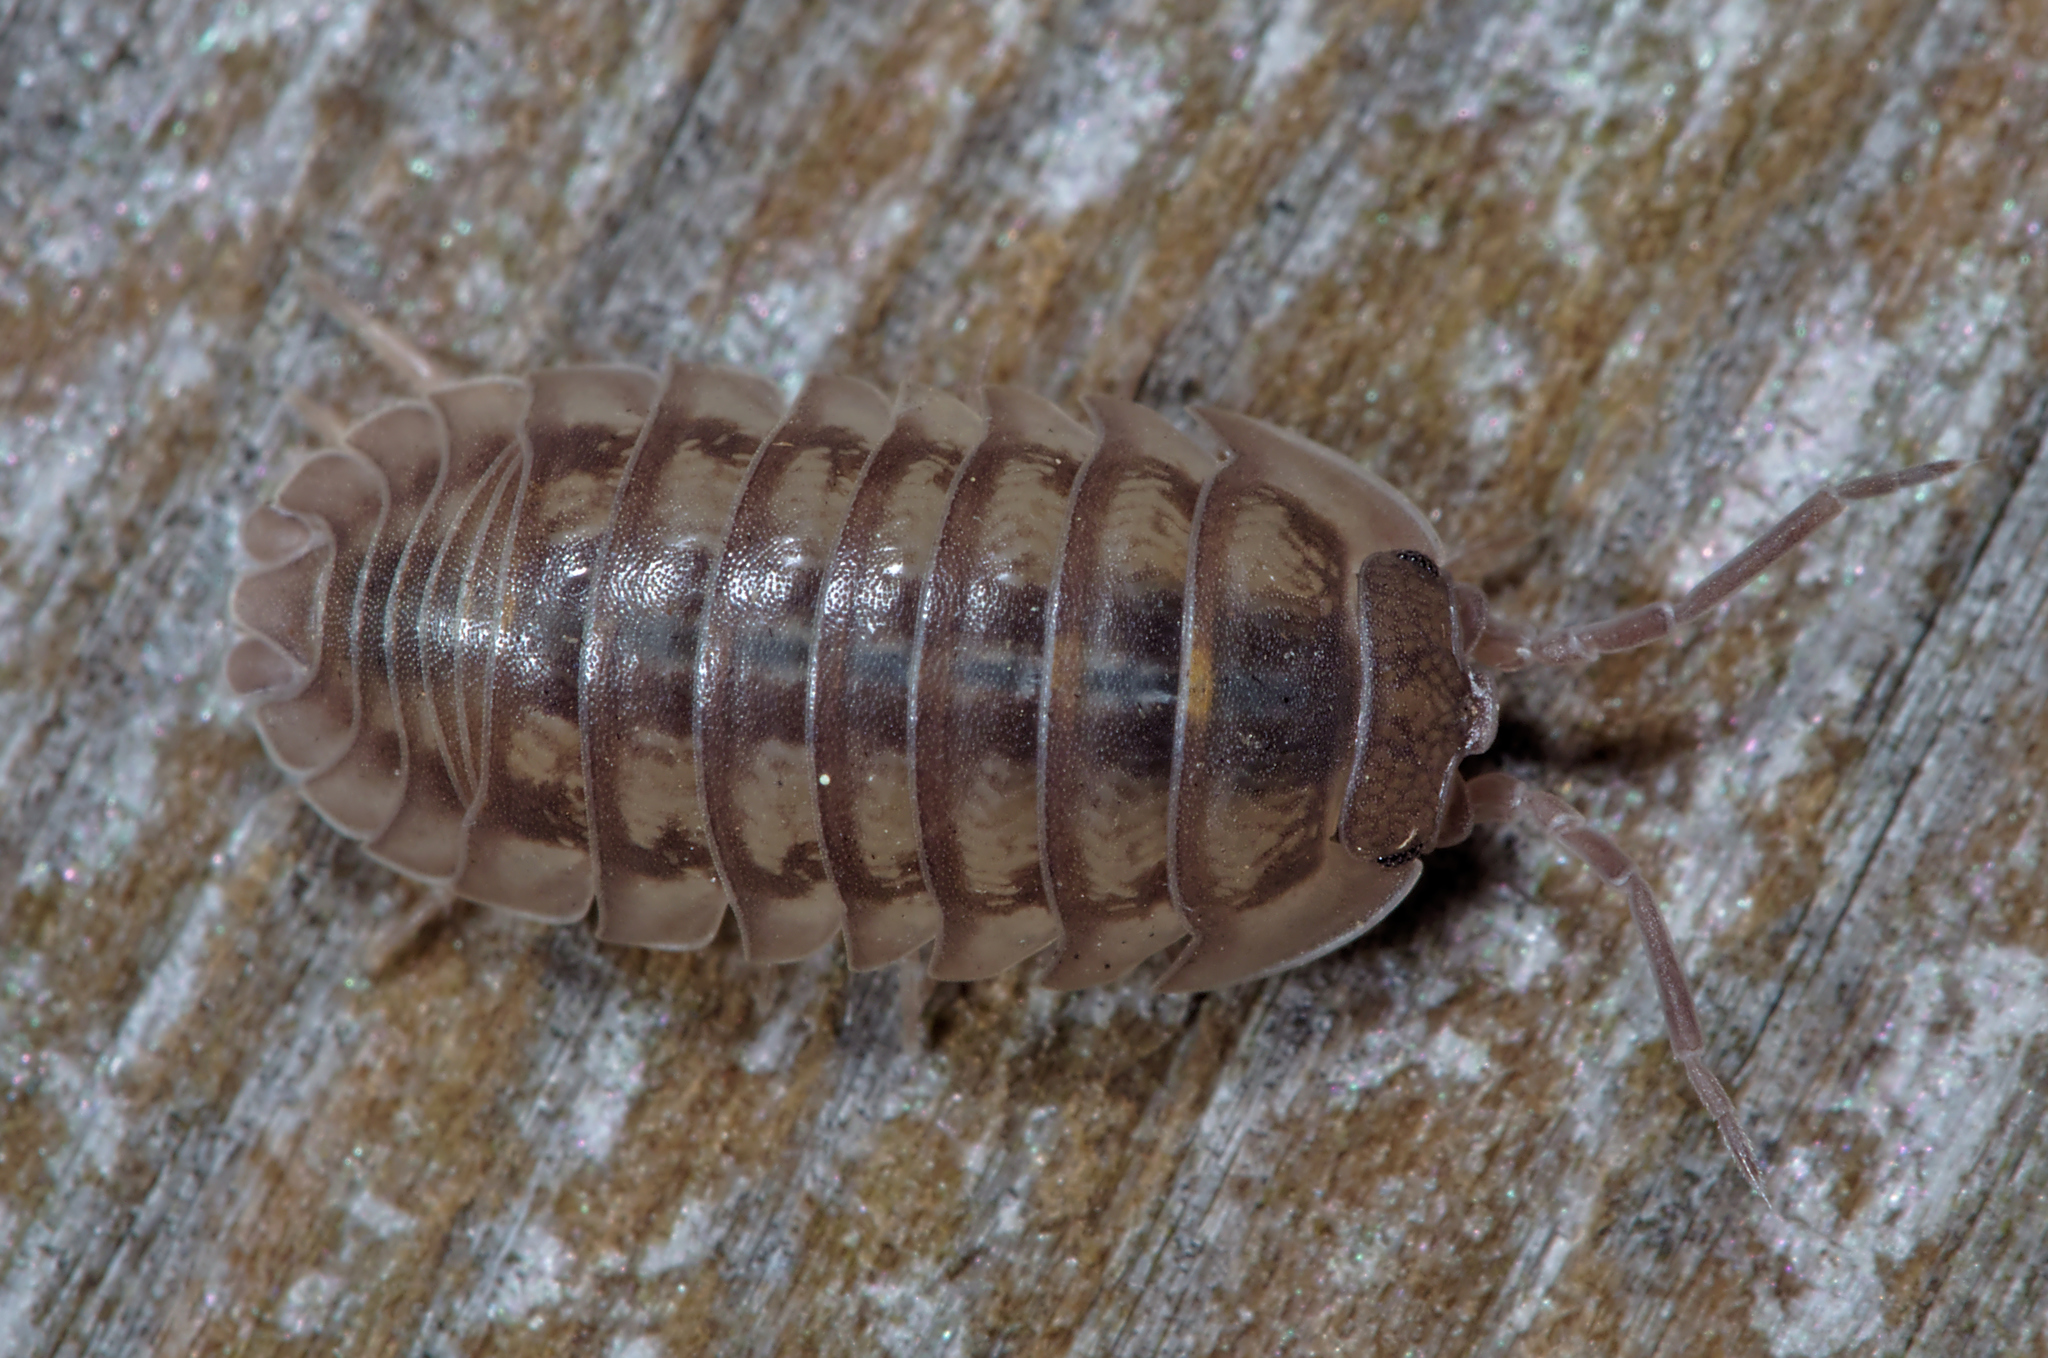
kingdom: Animalia
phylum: Arthropoda
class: Malacostraca
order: Isopoda
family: Armadillidiidae
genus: Armadillidium
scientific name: Armadillidium nasatum
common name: Isopod
